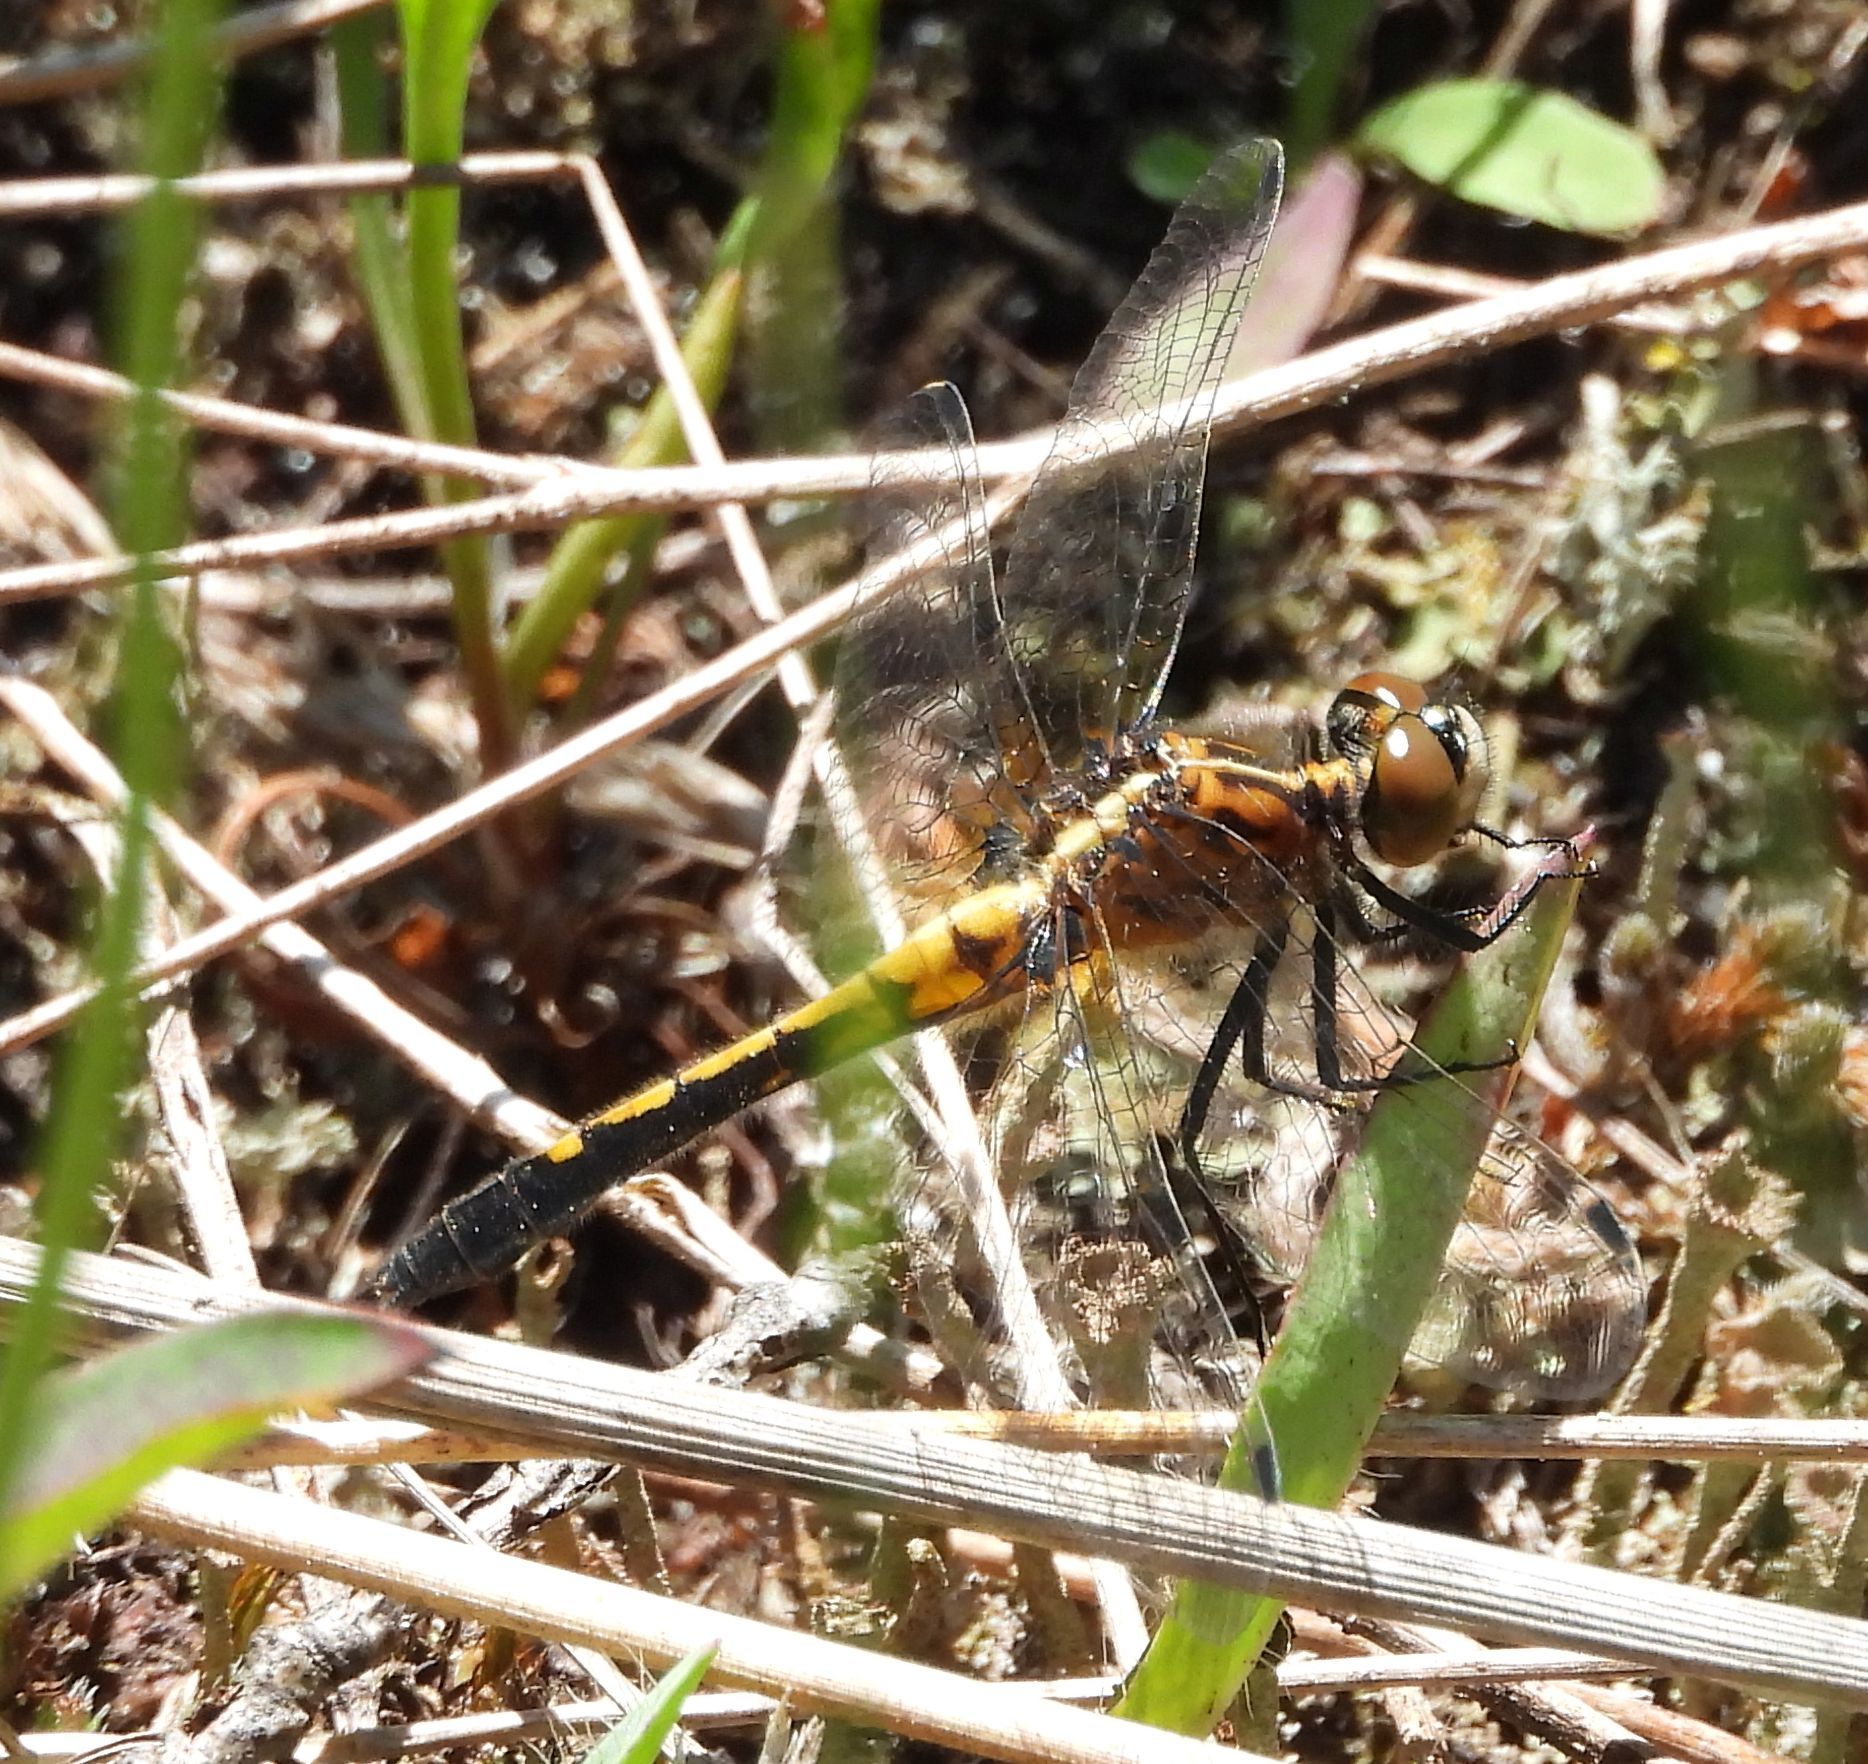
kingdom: Animalia
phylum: Arthropoda
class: Insecta
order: Odonata
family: Libellulidae
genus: Leucorrhinia
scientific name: Leucorrhinia intacta
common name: Dot-tailed whiteface
